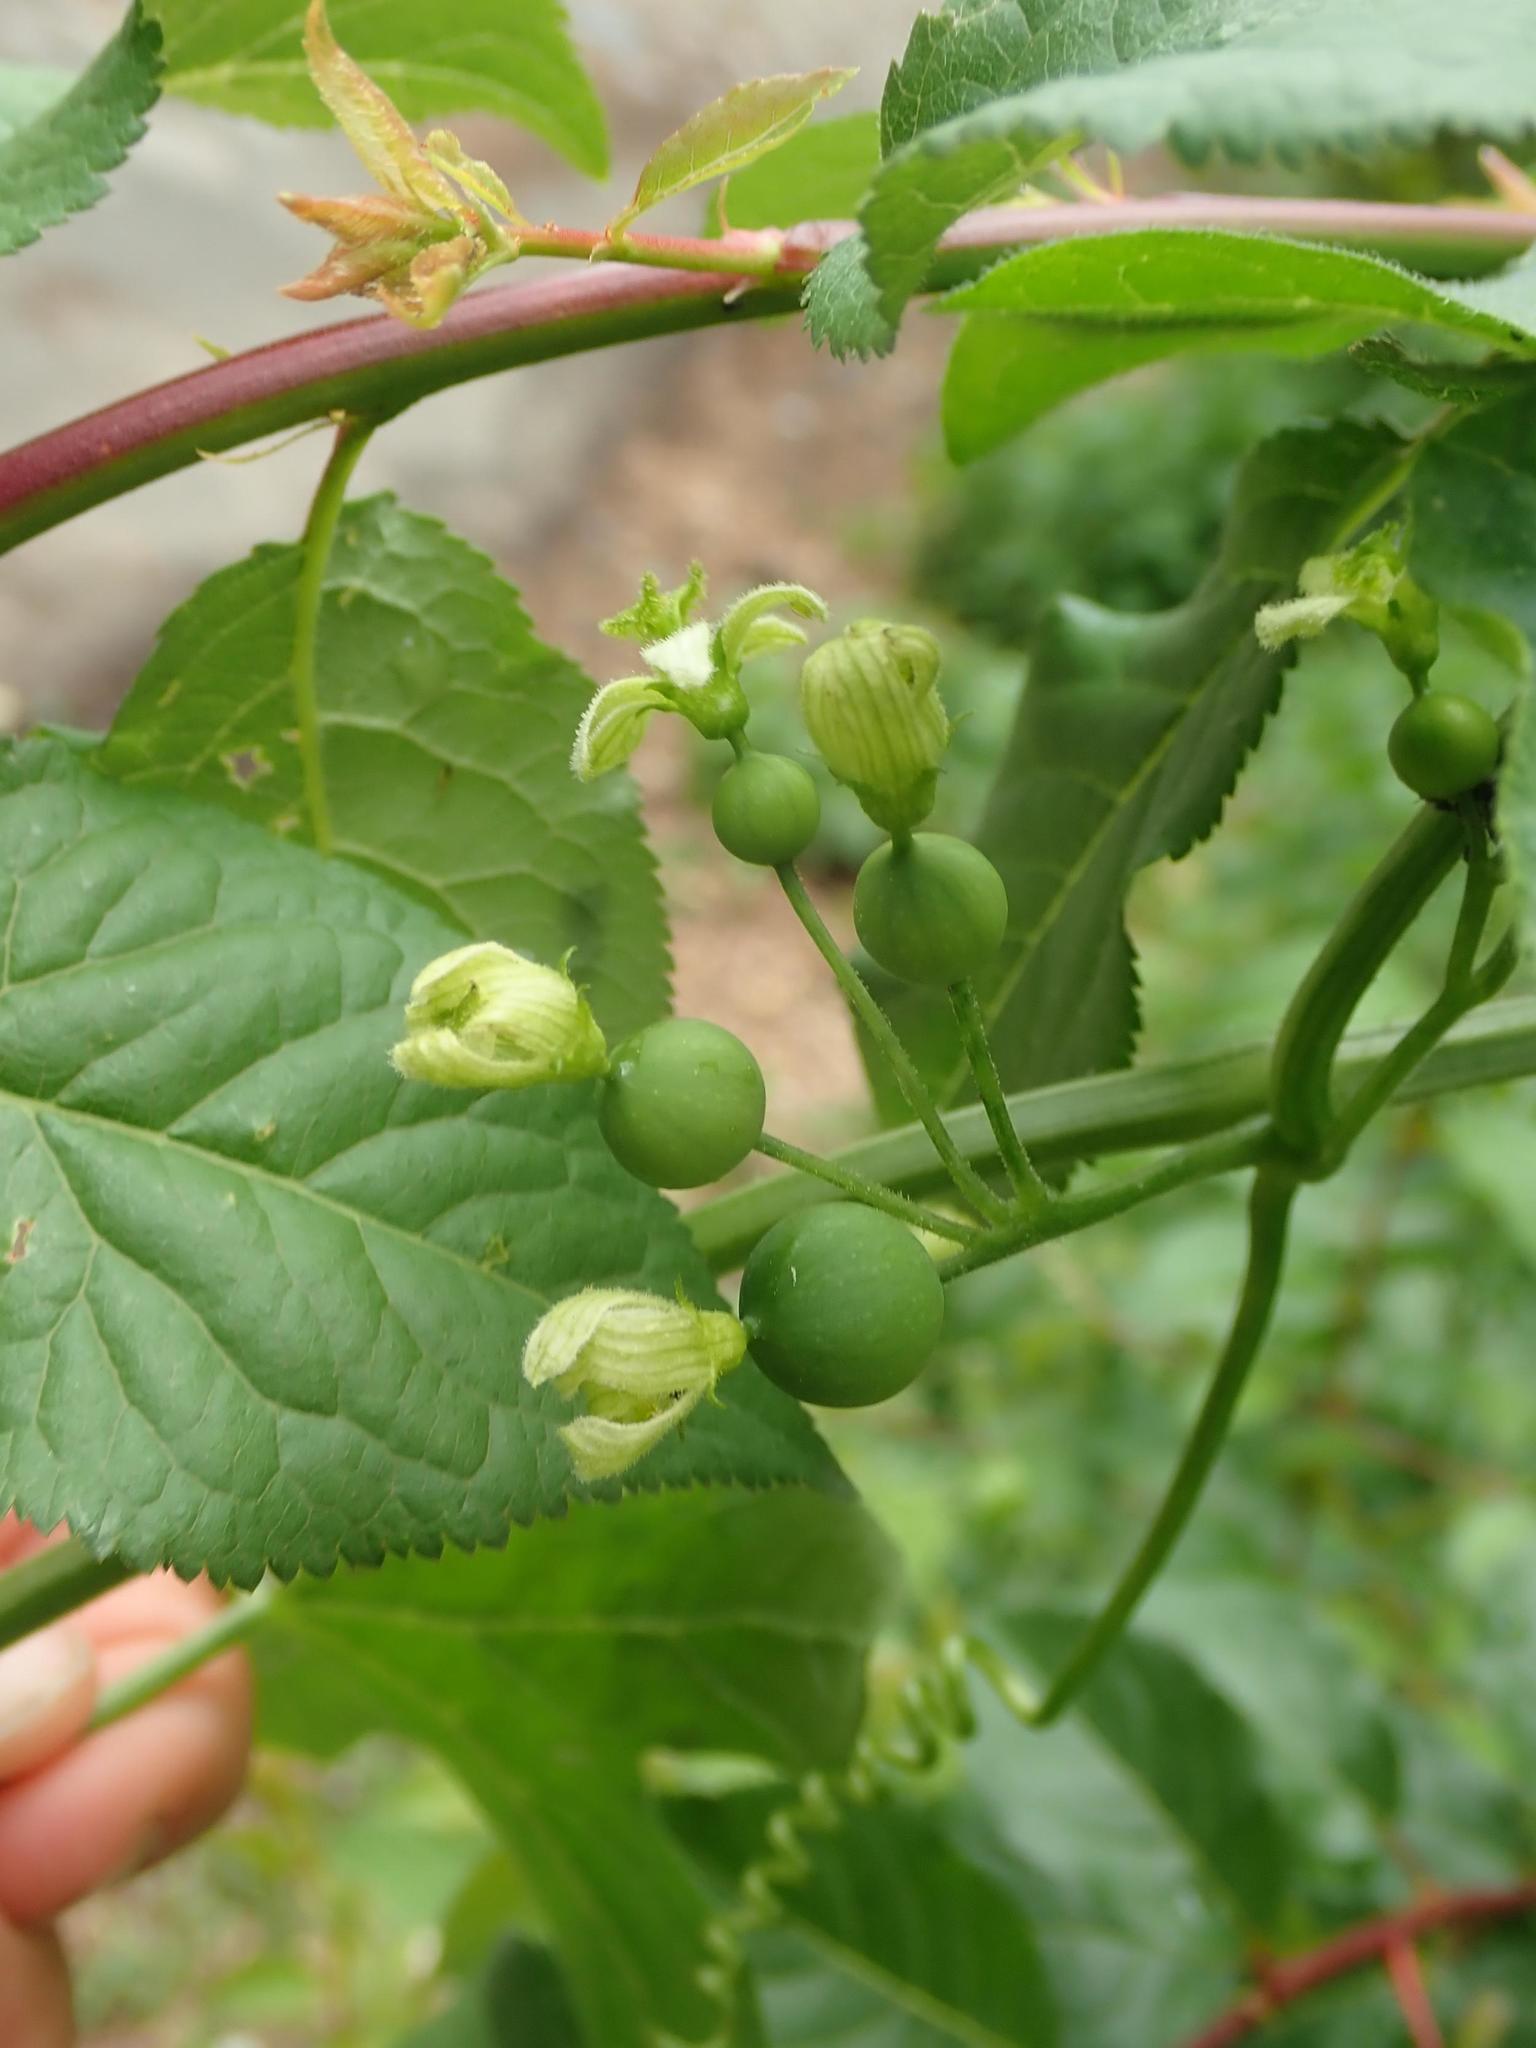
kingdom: Plantae
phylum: Tracheophyta
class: Magnoliopsida
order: Cucurbitales
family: Cucurbitaceae
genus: Bryonia
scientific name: Bryonia cretica
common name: Cretan bryony
